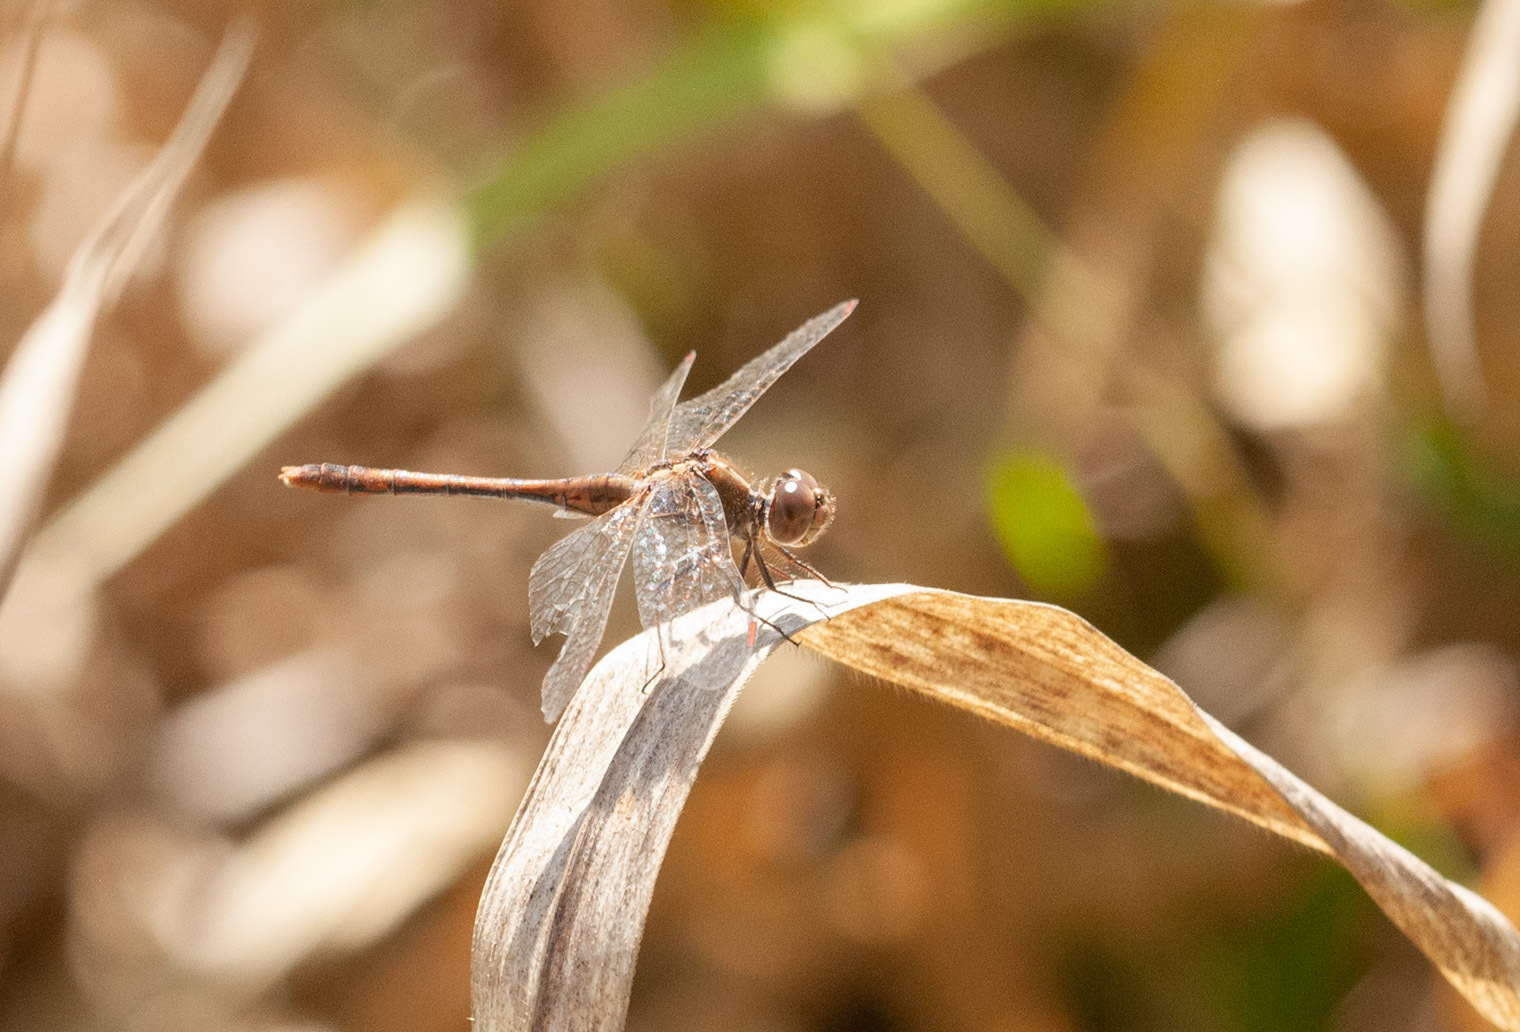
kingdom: Animalia
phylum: Arthropoda
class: Insecta
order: Odonata
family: Libellulidae
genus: Diplacodes
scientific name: Diplacodes bipunctata
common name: Red percher dragonfly
